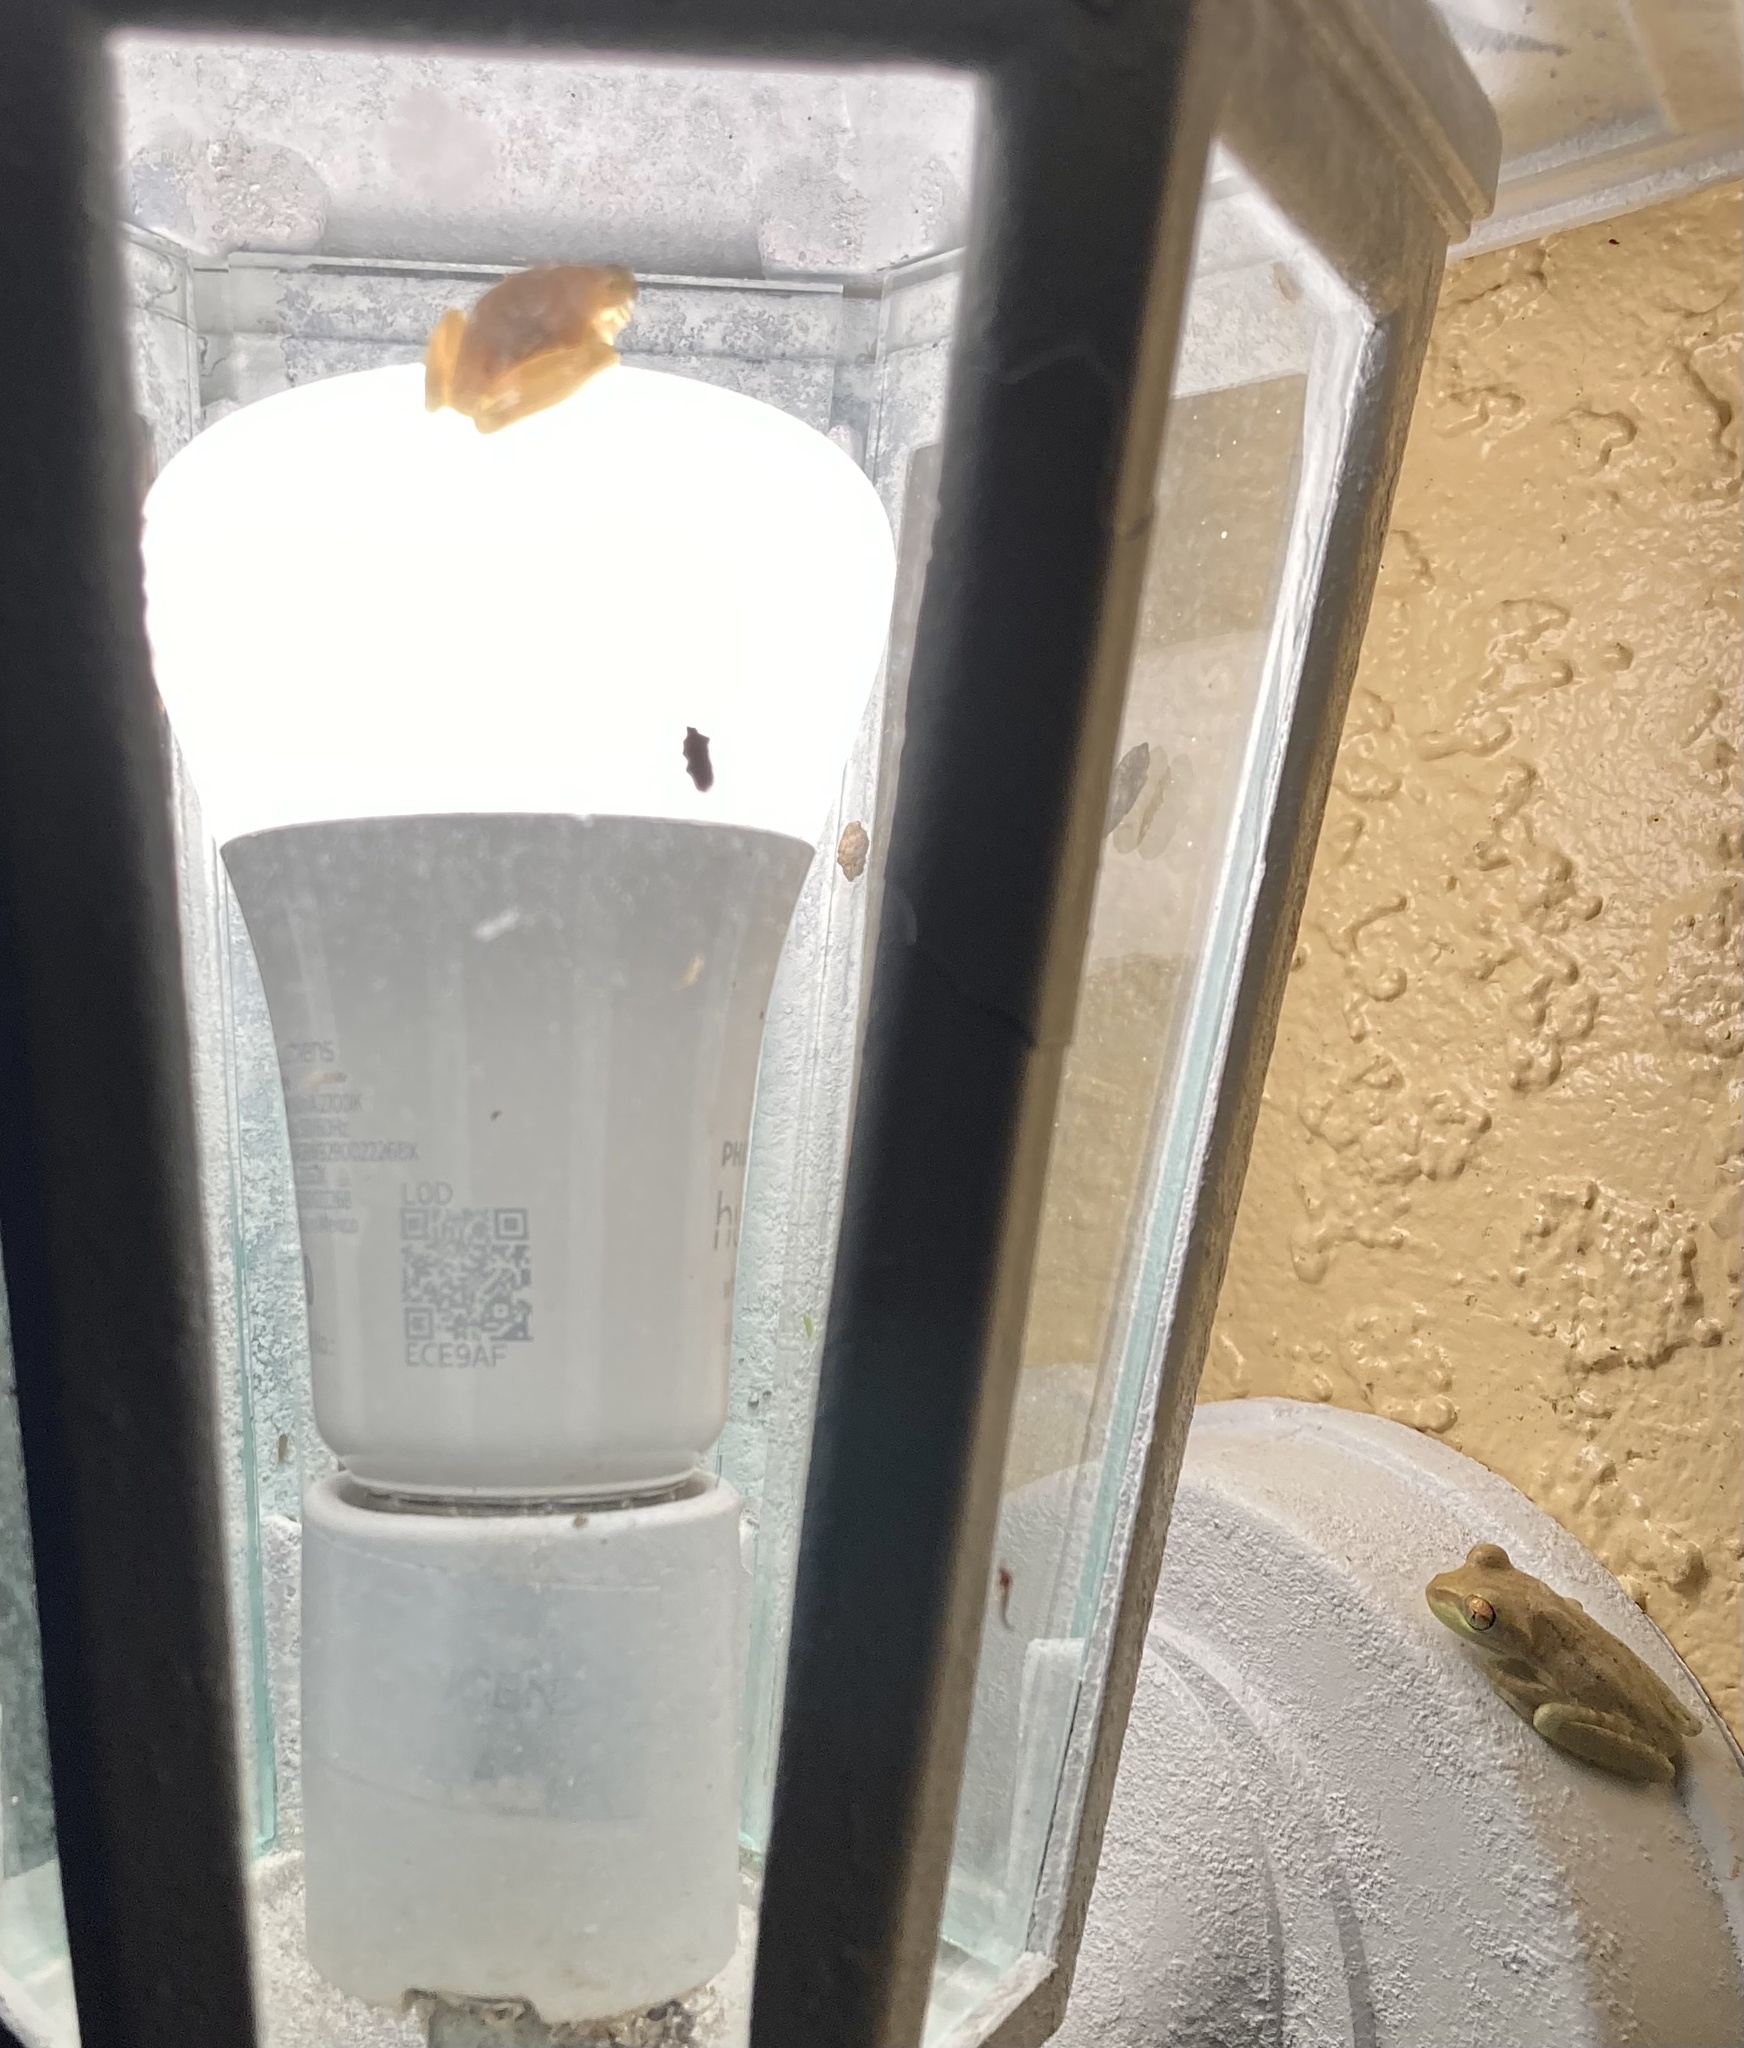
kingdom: Animalia
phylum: Chordata
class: Amphibia
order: Anura
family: Hylidae
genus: Osteopilus
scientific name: Osteopilus septentrionalis
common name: Cuban treefrog
